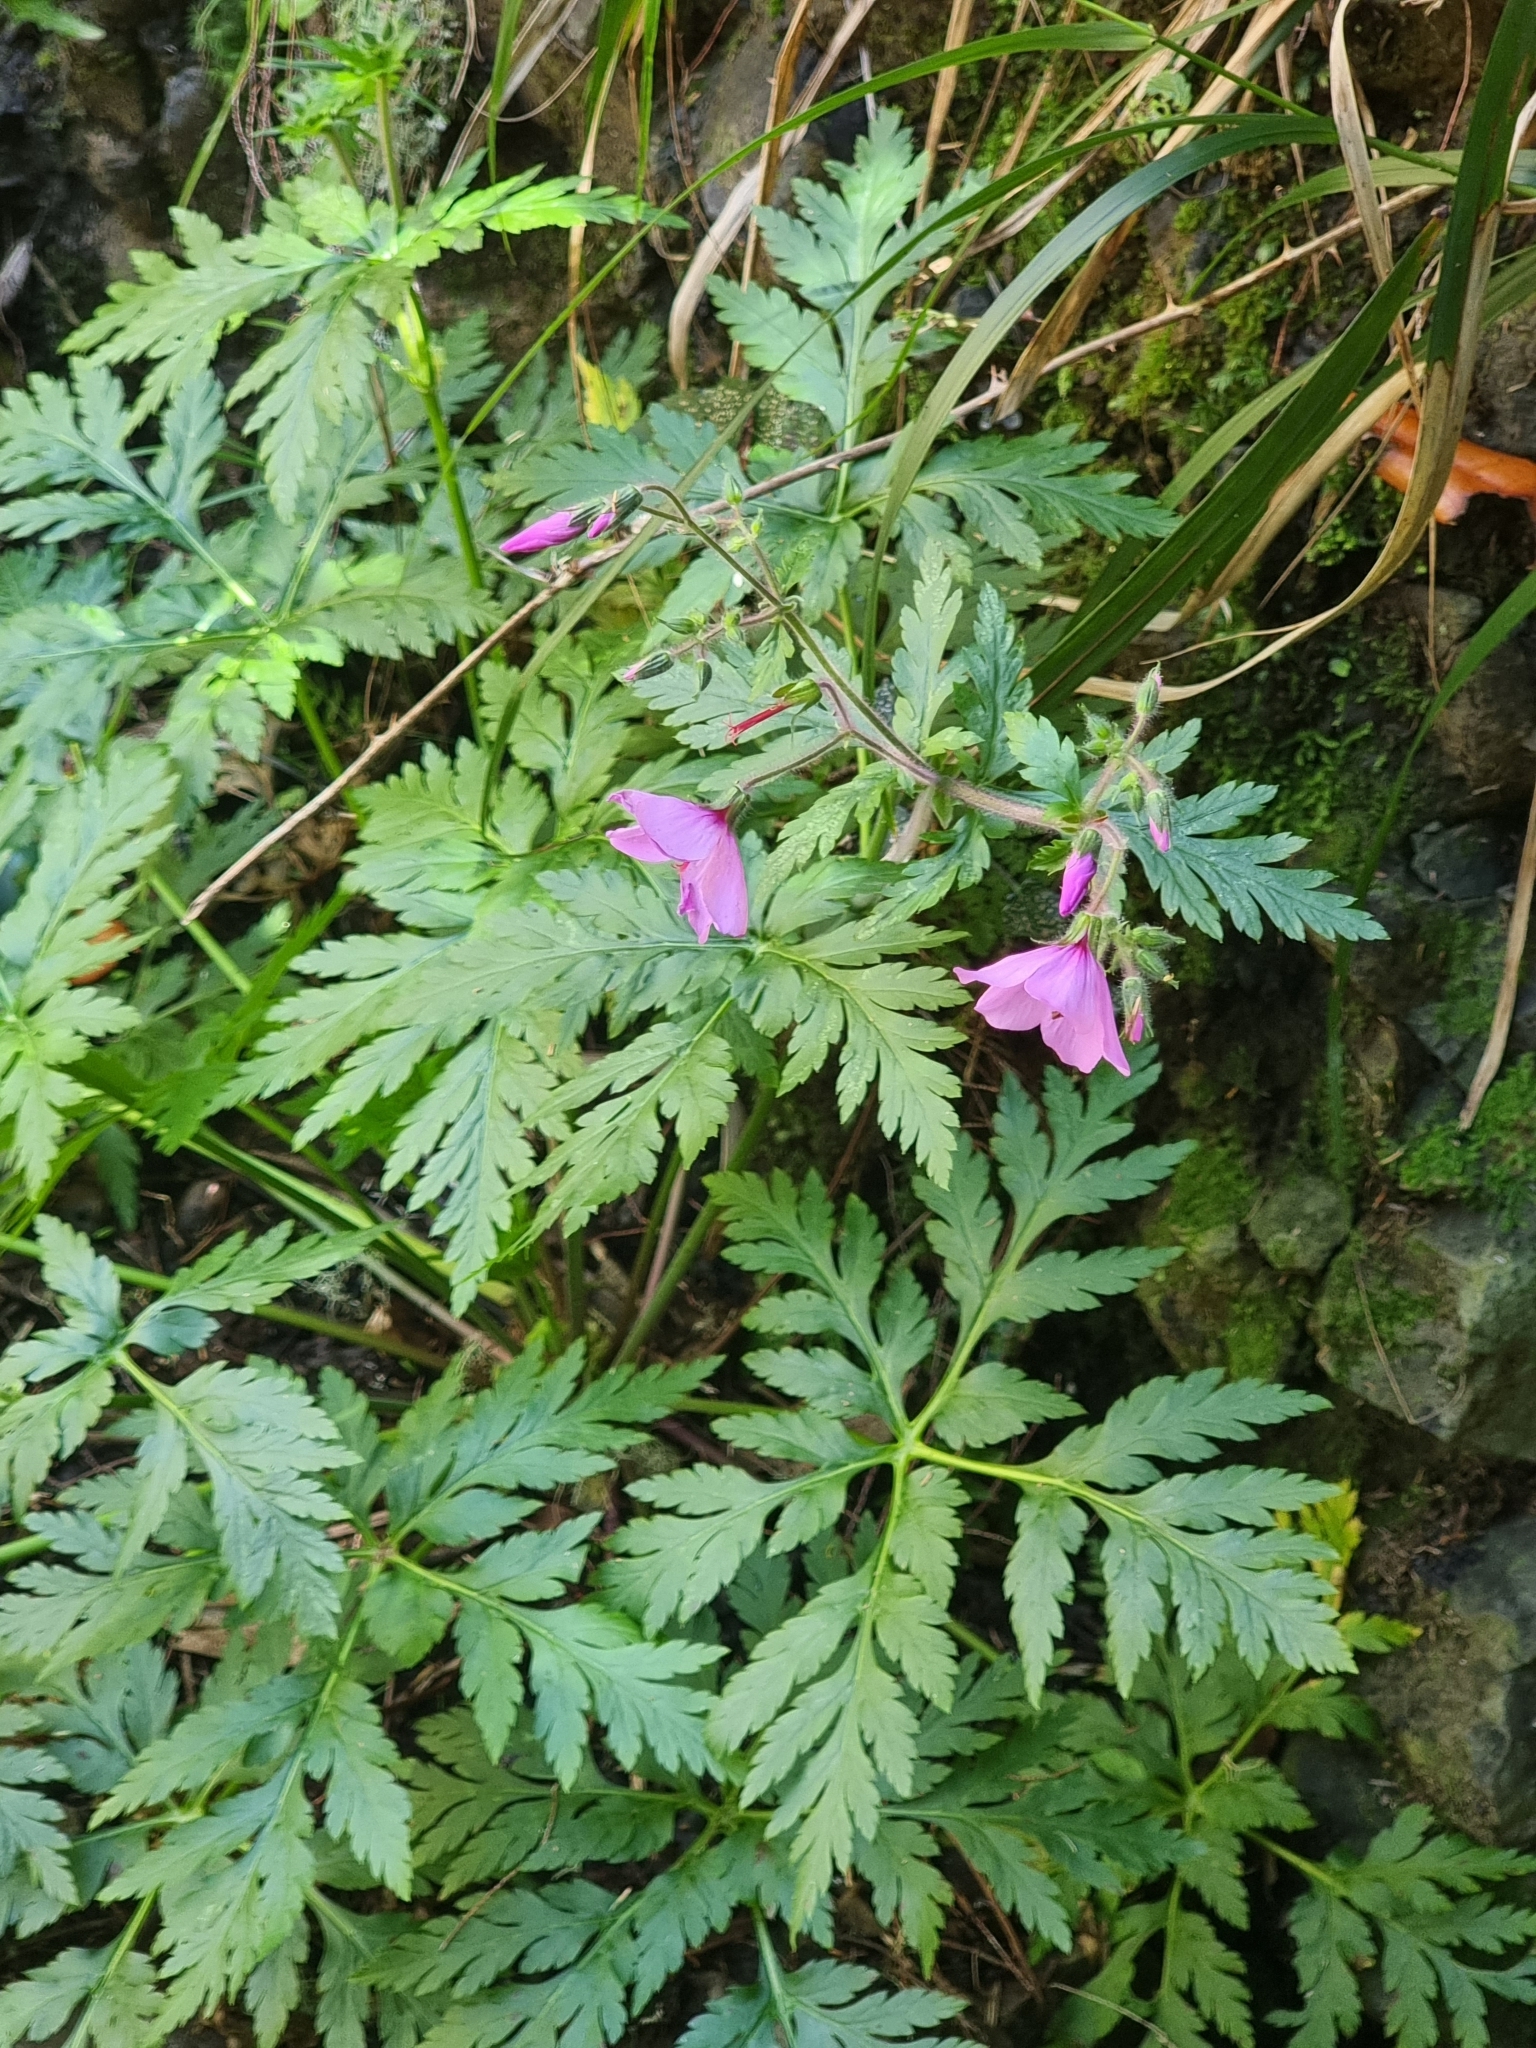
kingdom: Plantae
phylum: Tracheophyta
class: Magnoliopsida
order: Geraniales
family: Geraniaceae
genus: Geranium
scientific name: Geranium palmatum
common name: Canary island geranium
